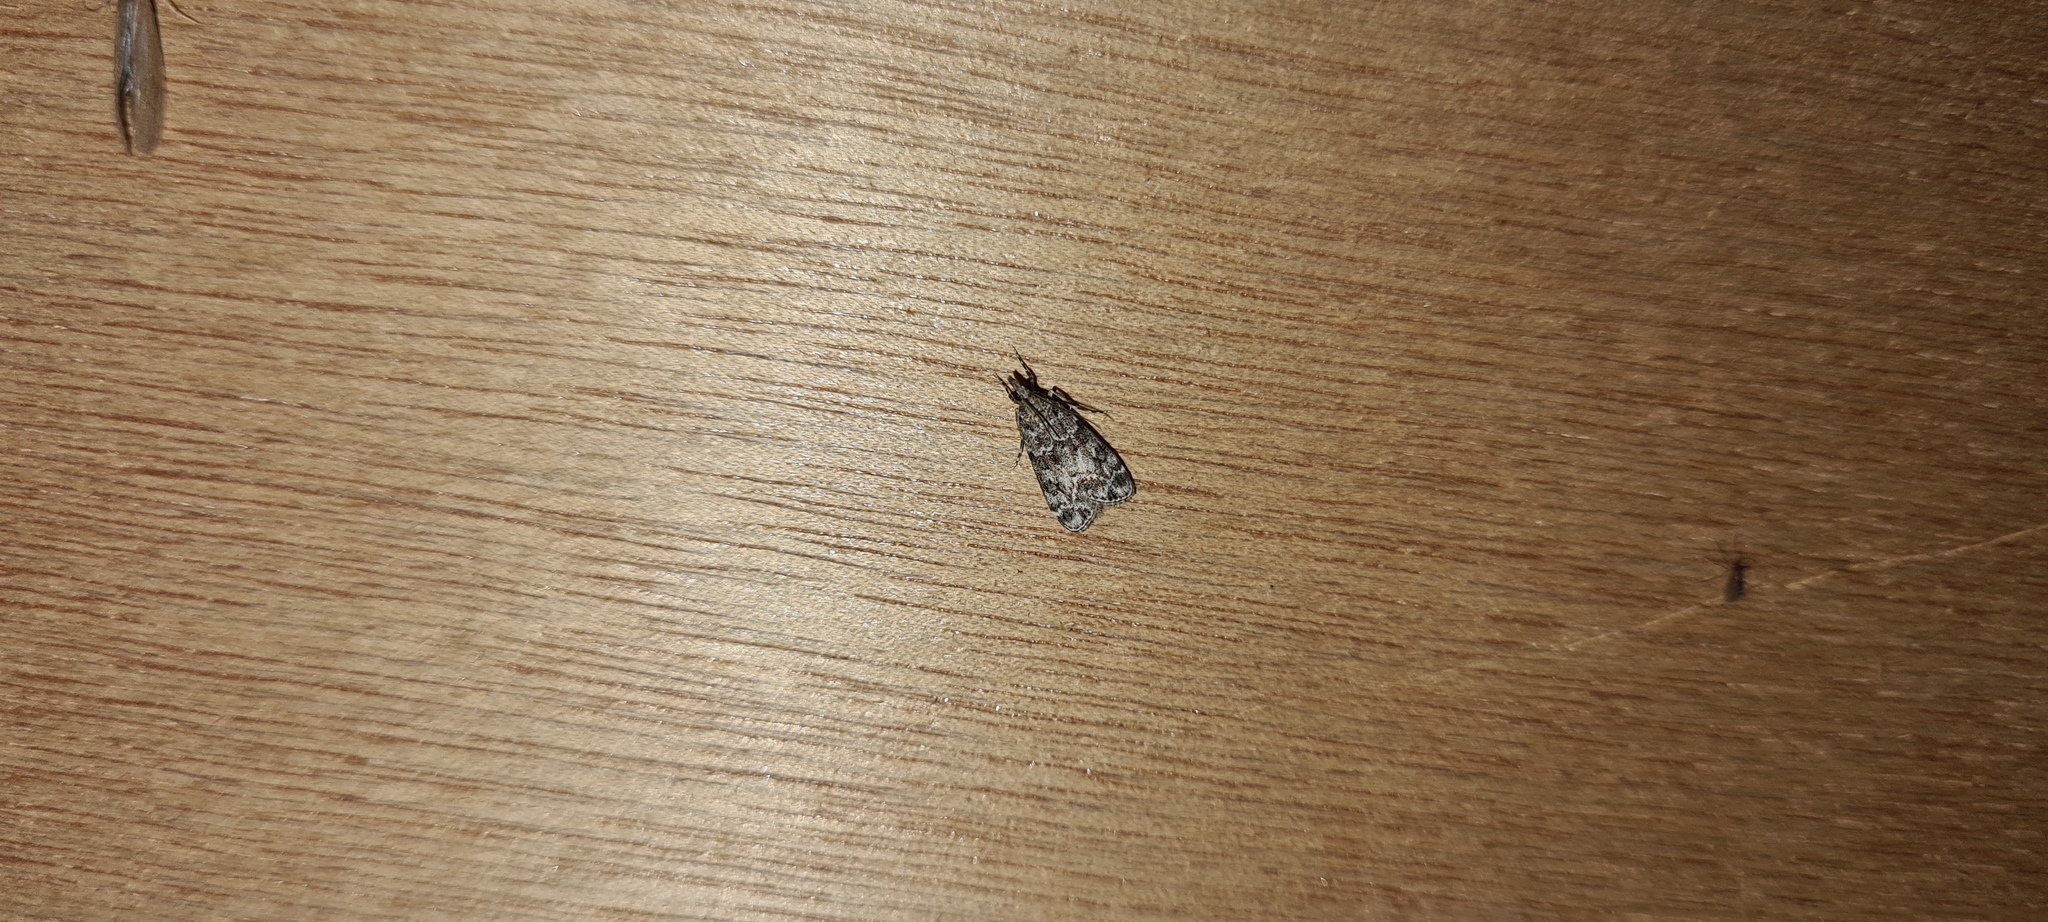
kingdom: Animalia
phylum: Arthropoda
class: Insecta
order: Lepidoptera
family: Crambidae
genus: Eudonia
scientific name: Eudonia mercurella
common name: Small grey
